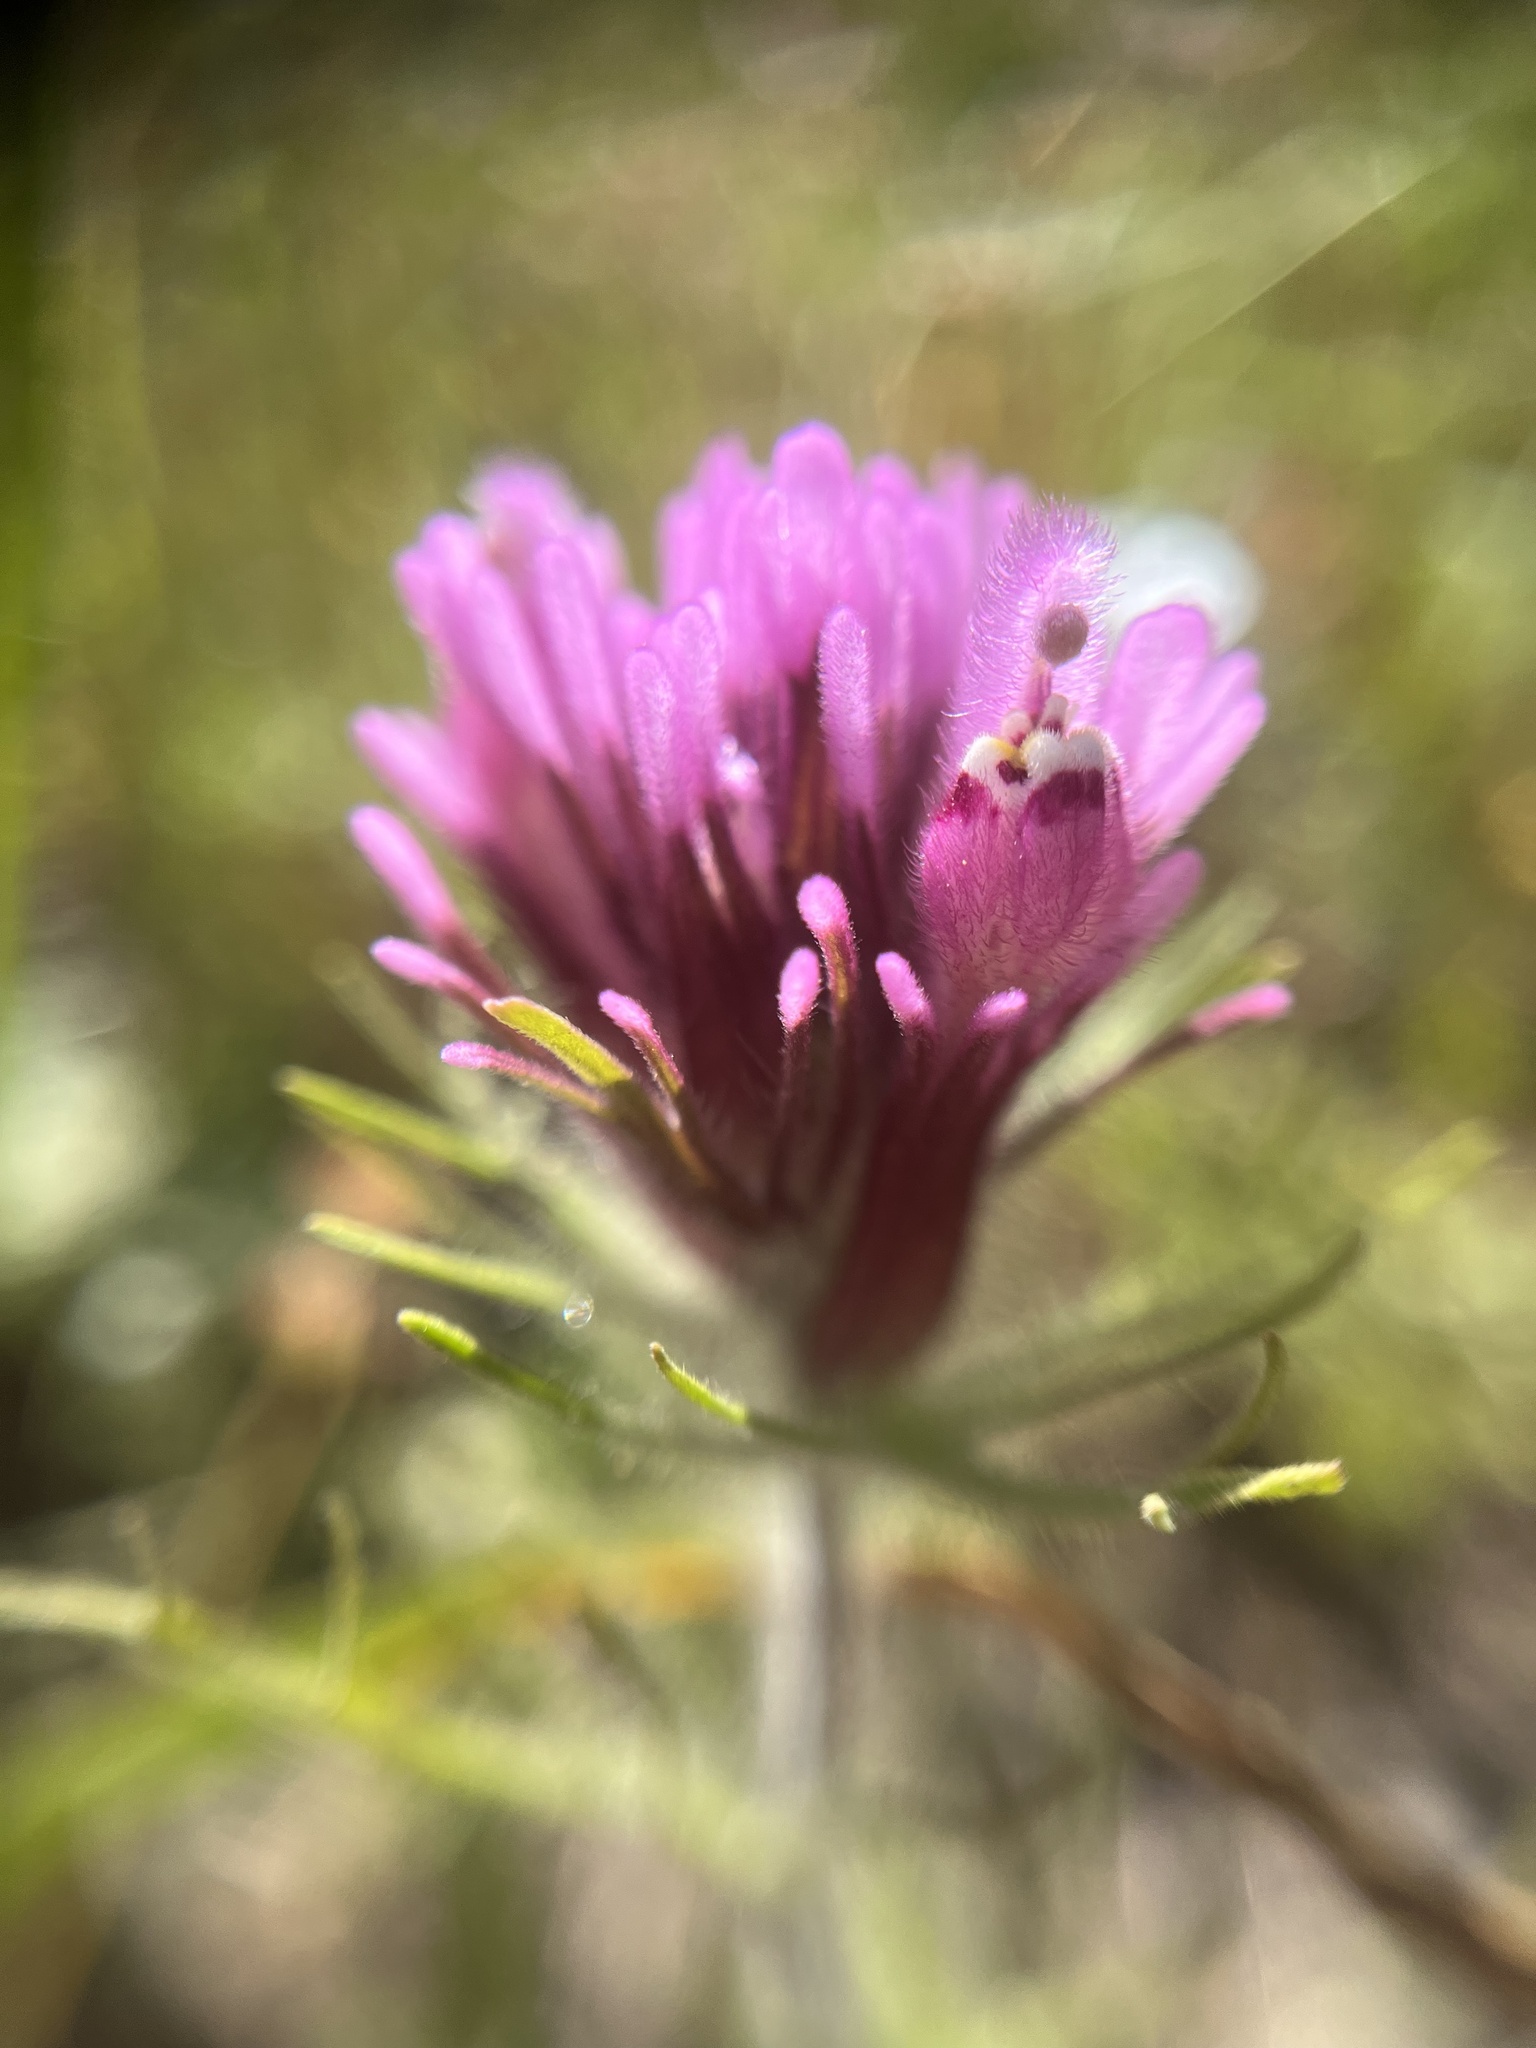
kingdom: Plantae
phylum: Tracheophyta
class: Magnoliopsida
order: Lamiales
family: Orobanchaceae
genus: Castilleja
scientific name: Castilleja exserta
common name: Purple owl-clover
